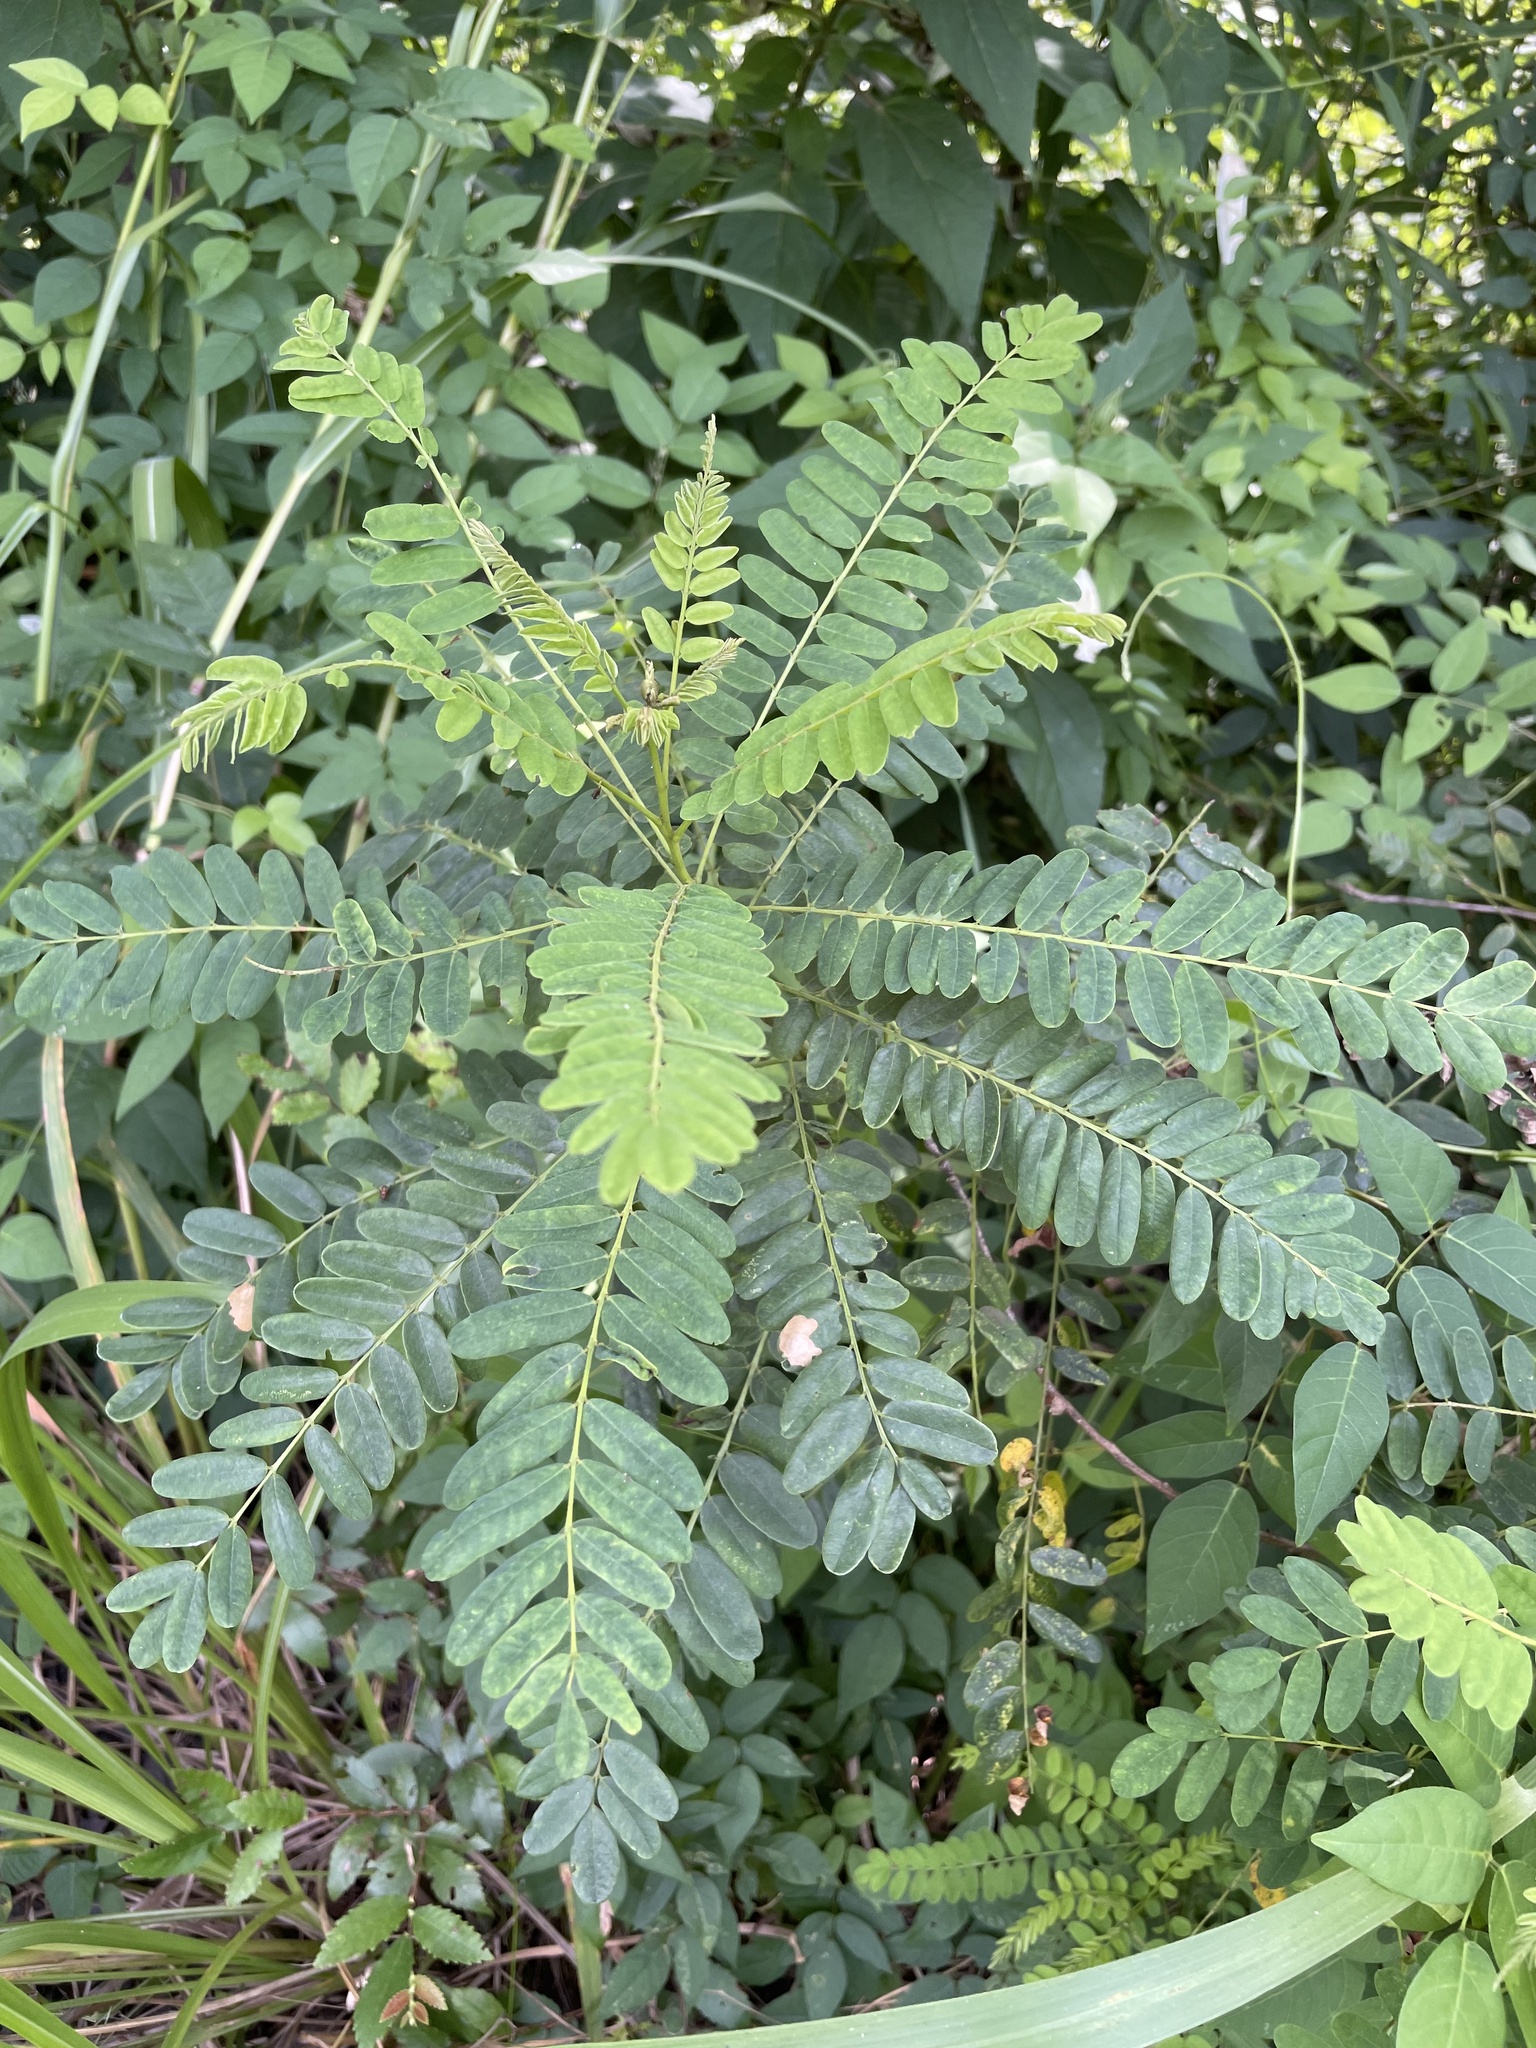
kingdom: Plantae
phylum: Tracheophyta
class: Magnoliopsida
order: Fabales
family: Fabaceae
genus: Amorpha
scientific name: Amorpha fruticosa
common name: False indigo
